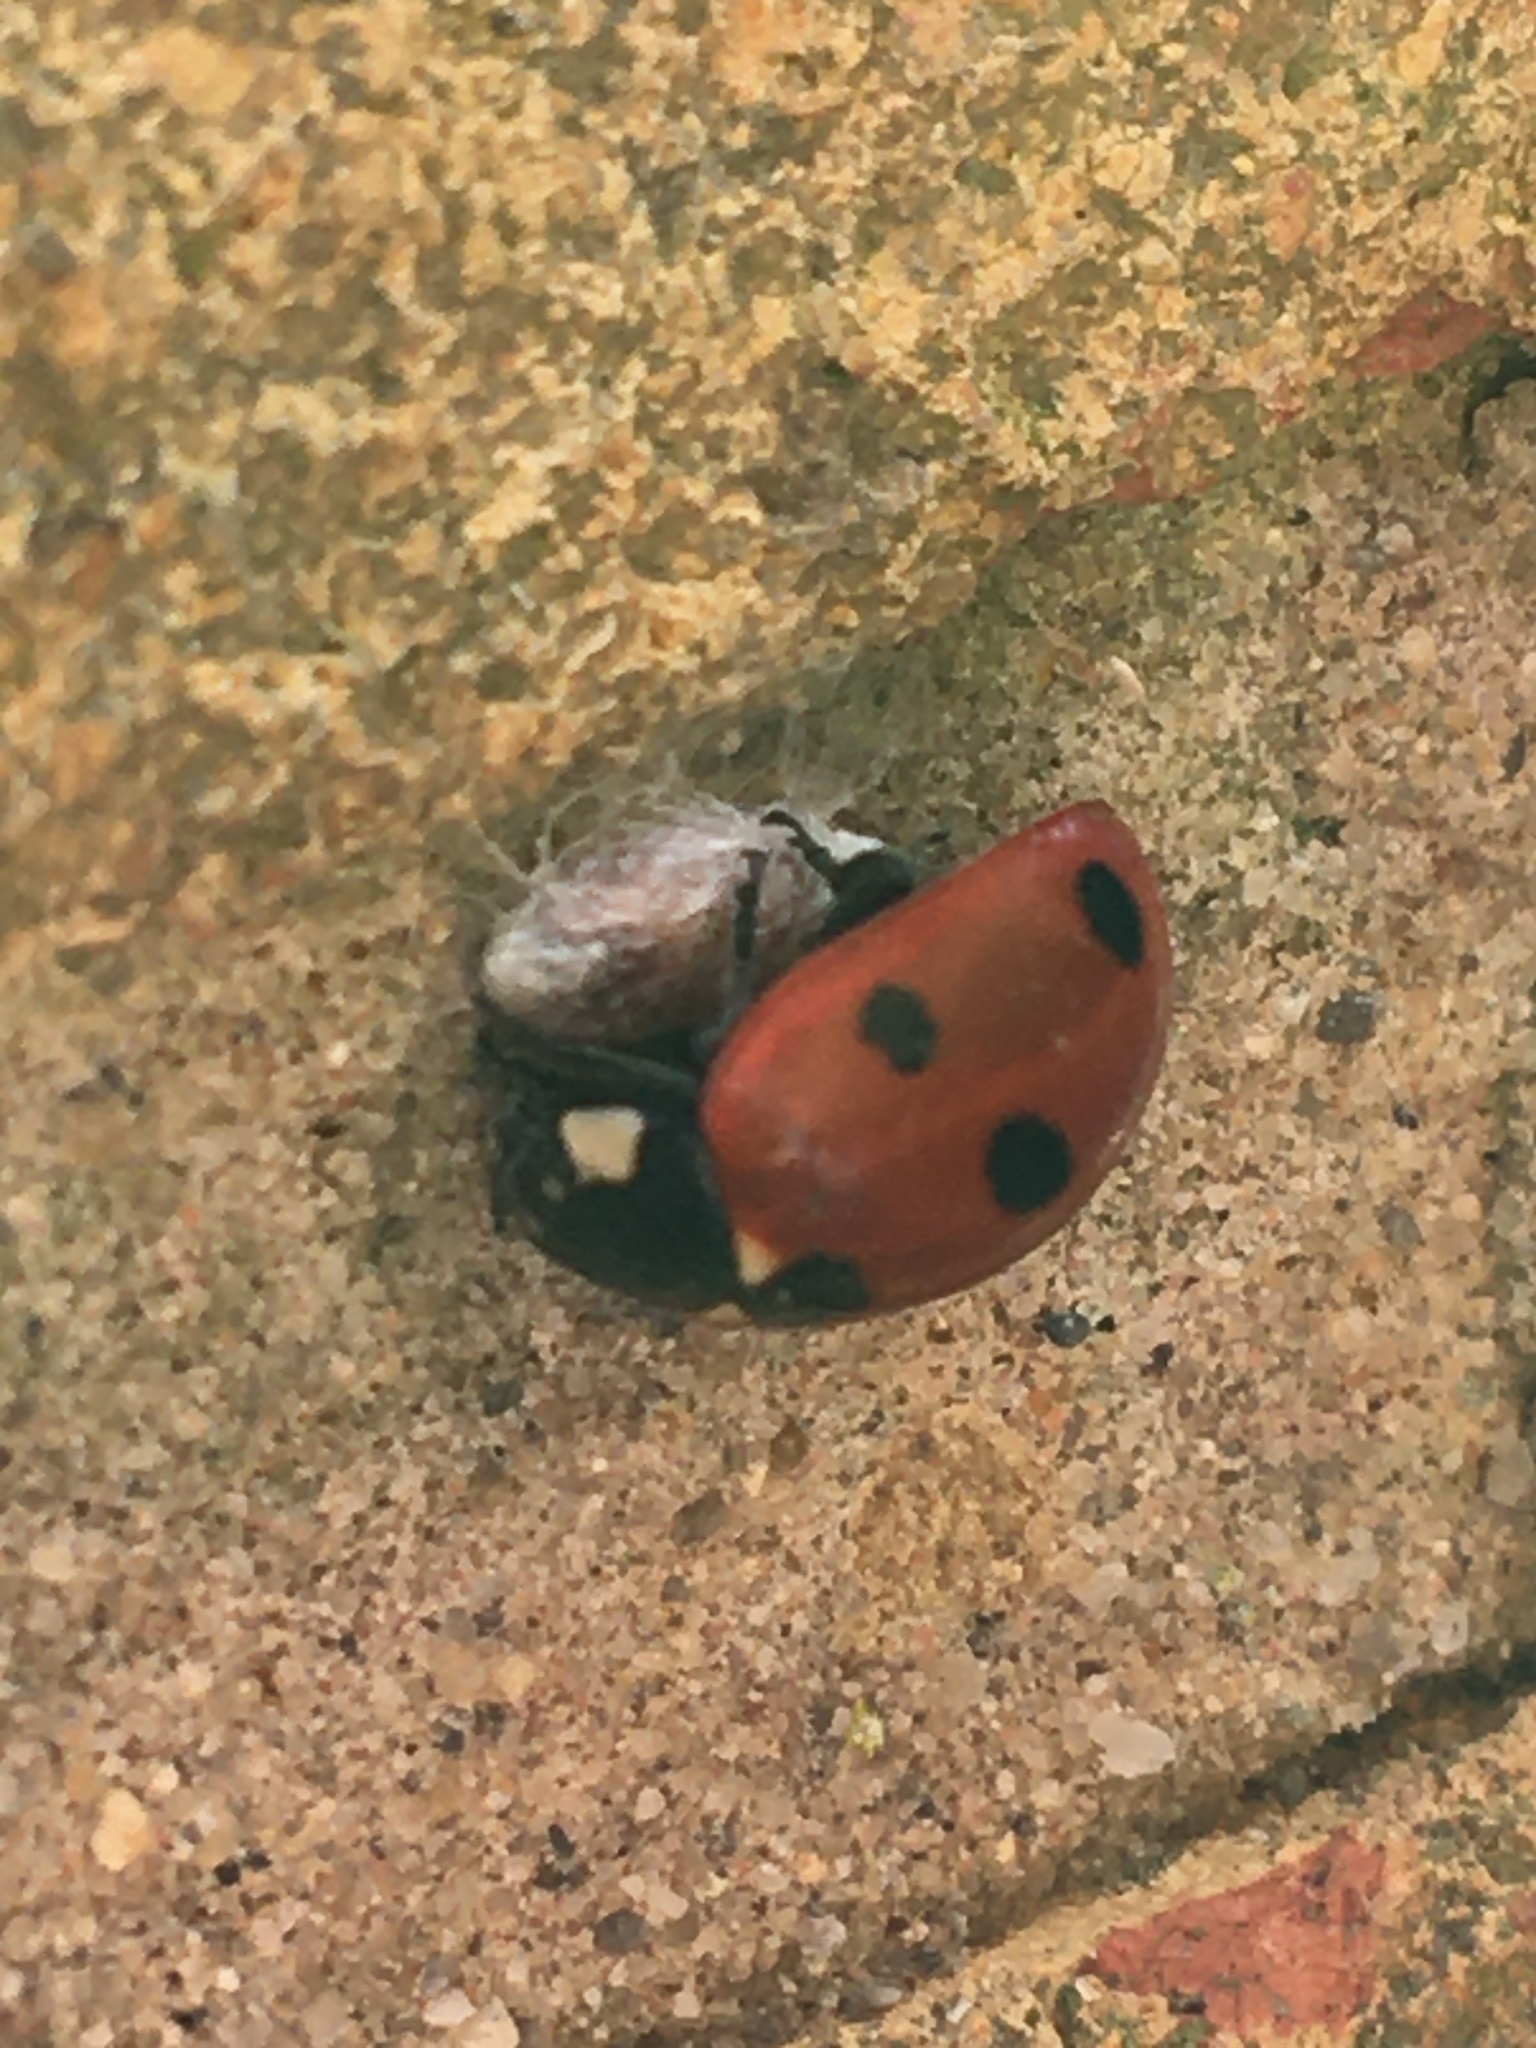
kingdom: Animalia
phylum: Arthropoda
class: Insecta
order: Coleoptera
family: Coccinellidae
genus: Coccinella
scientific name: Coccinella septempunctata
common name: Sevenspotted lady beetle
